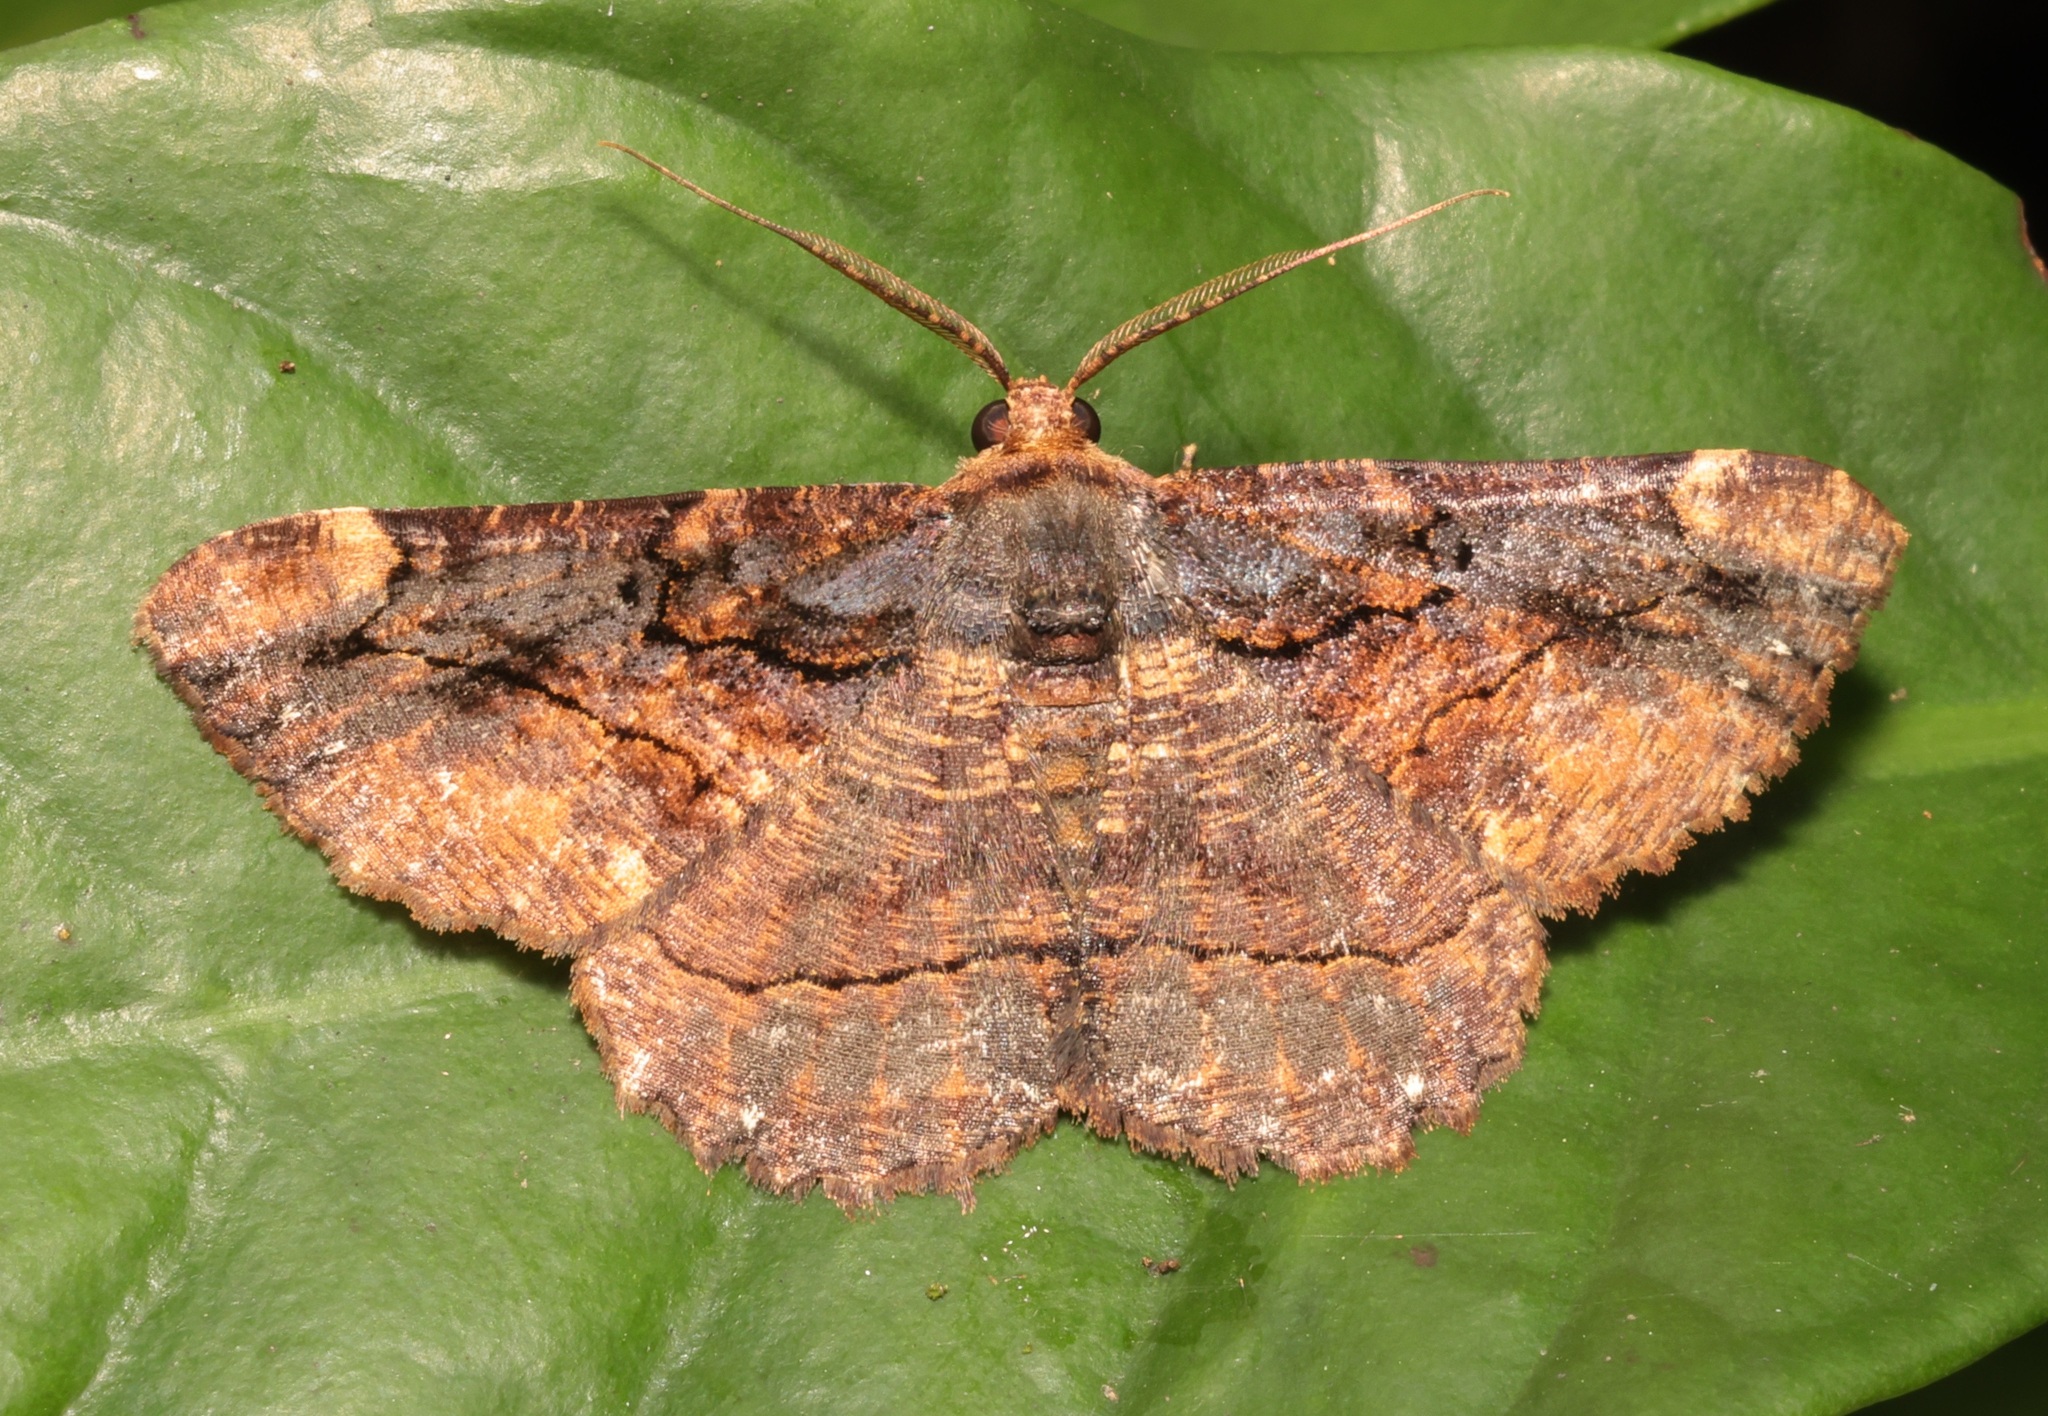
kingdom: Animalia
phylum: Arthropoda
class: Insecta
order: Lepidoptera
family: Geometridae
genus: Dasyboarmia
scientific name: Dasyboarmia subpilosa
